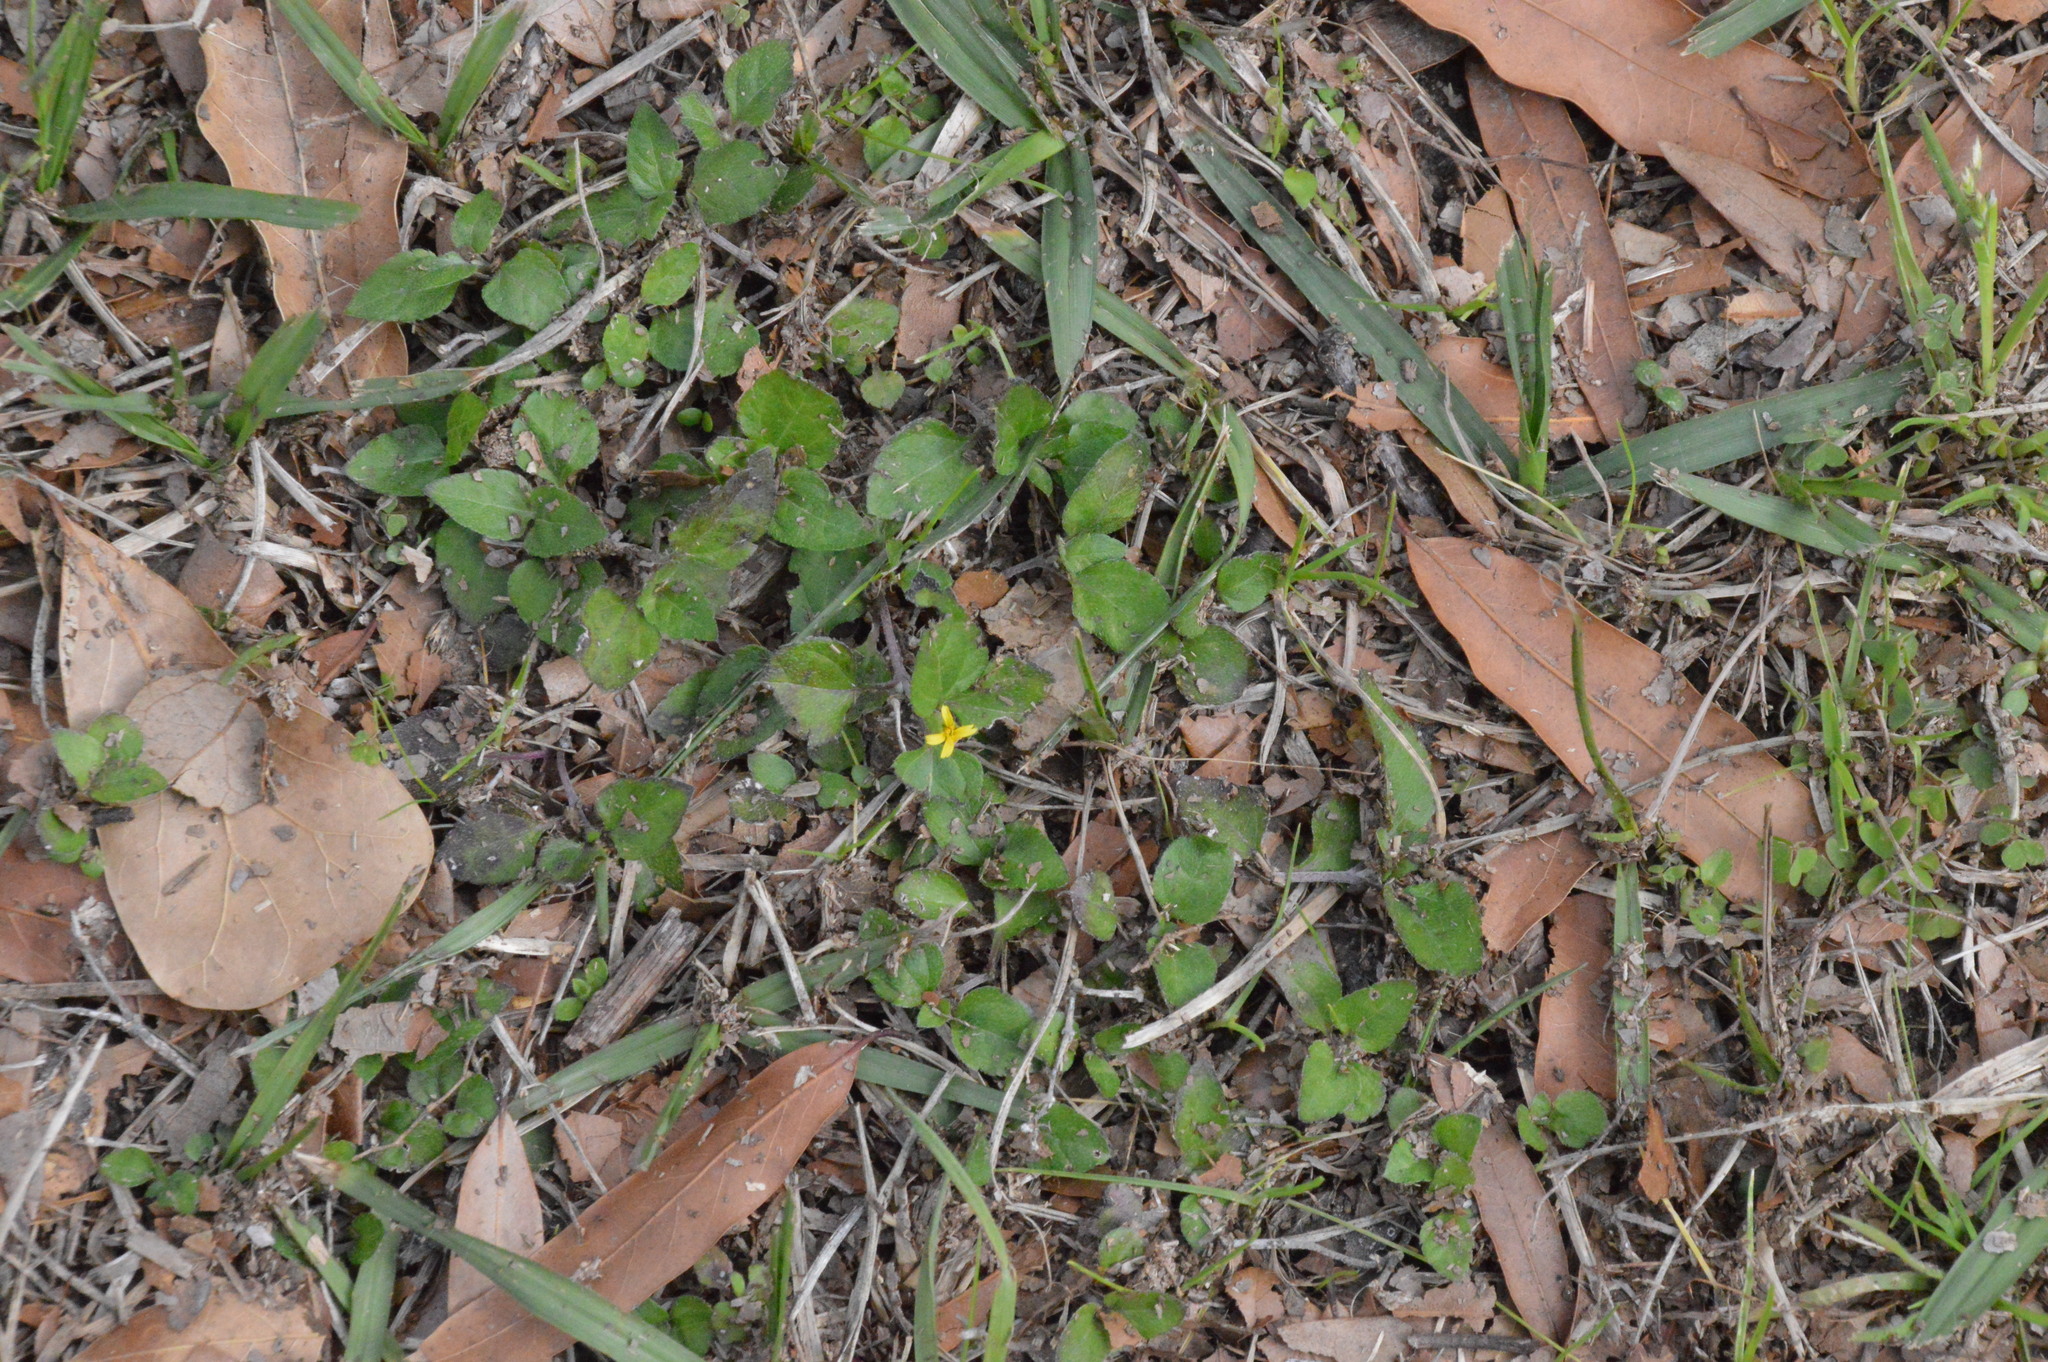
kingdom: Plantae
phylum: Tracheophyta
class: Magnoliopsida
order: Asterales
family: Asteraceae
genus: Calyptocarpus
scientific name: Calyptocarpus vialis
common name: Straggler daisy
